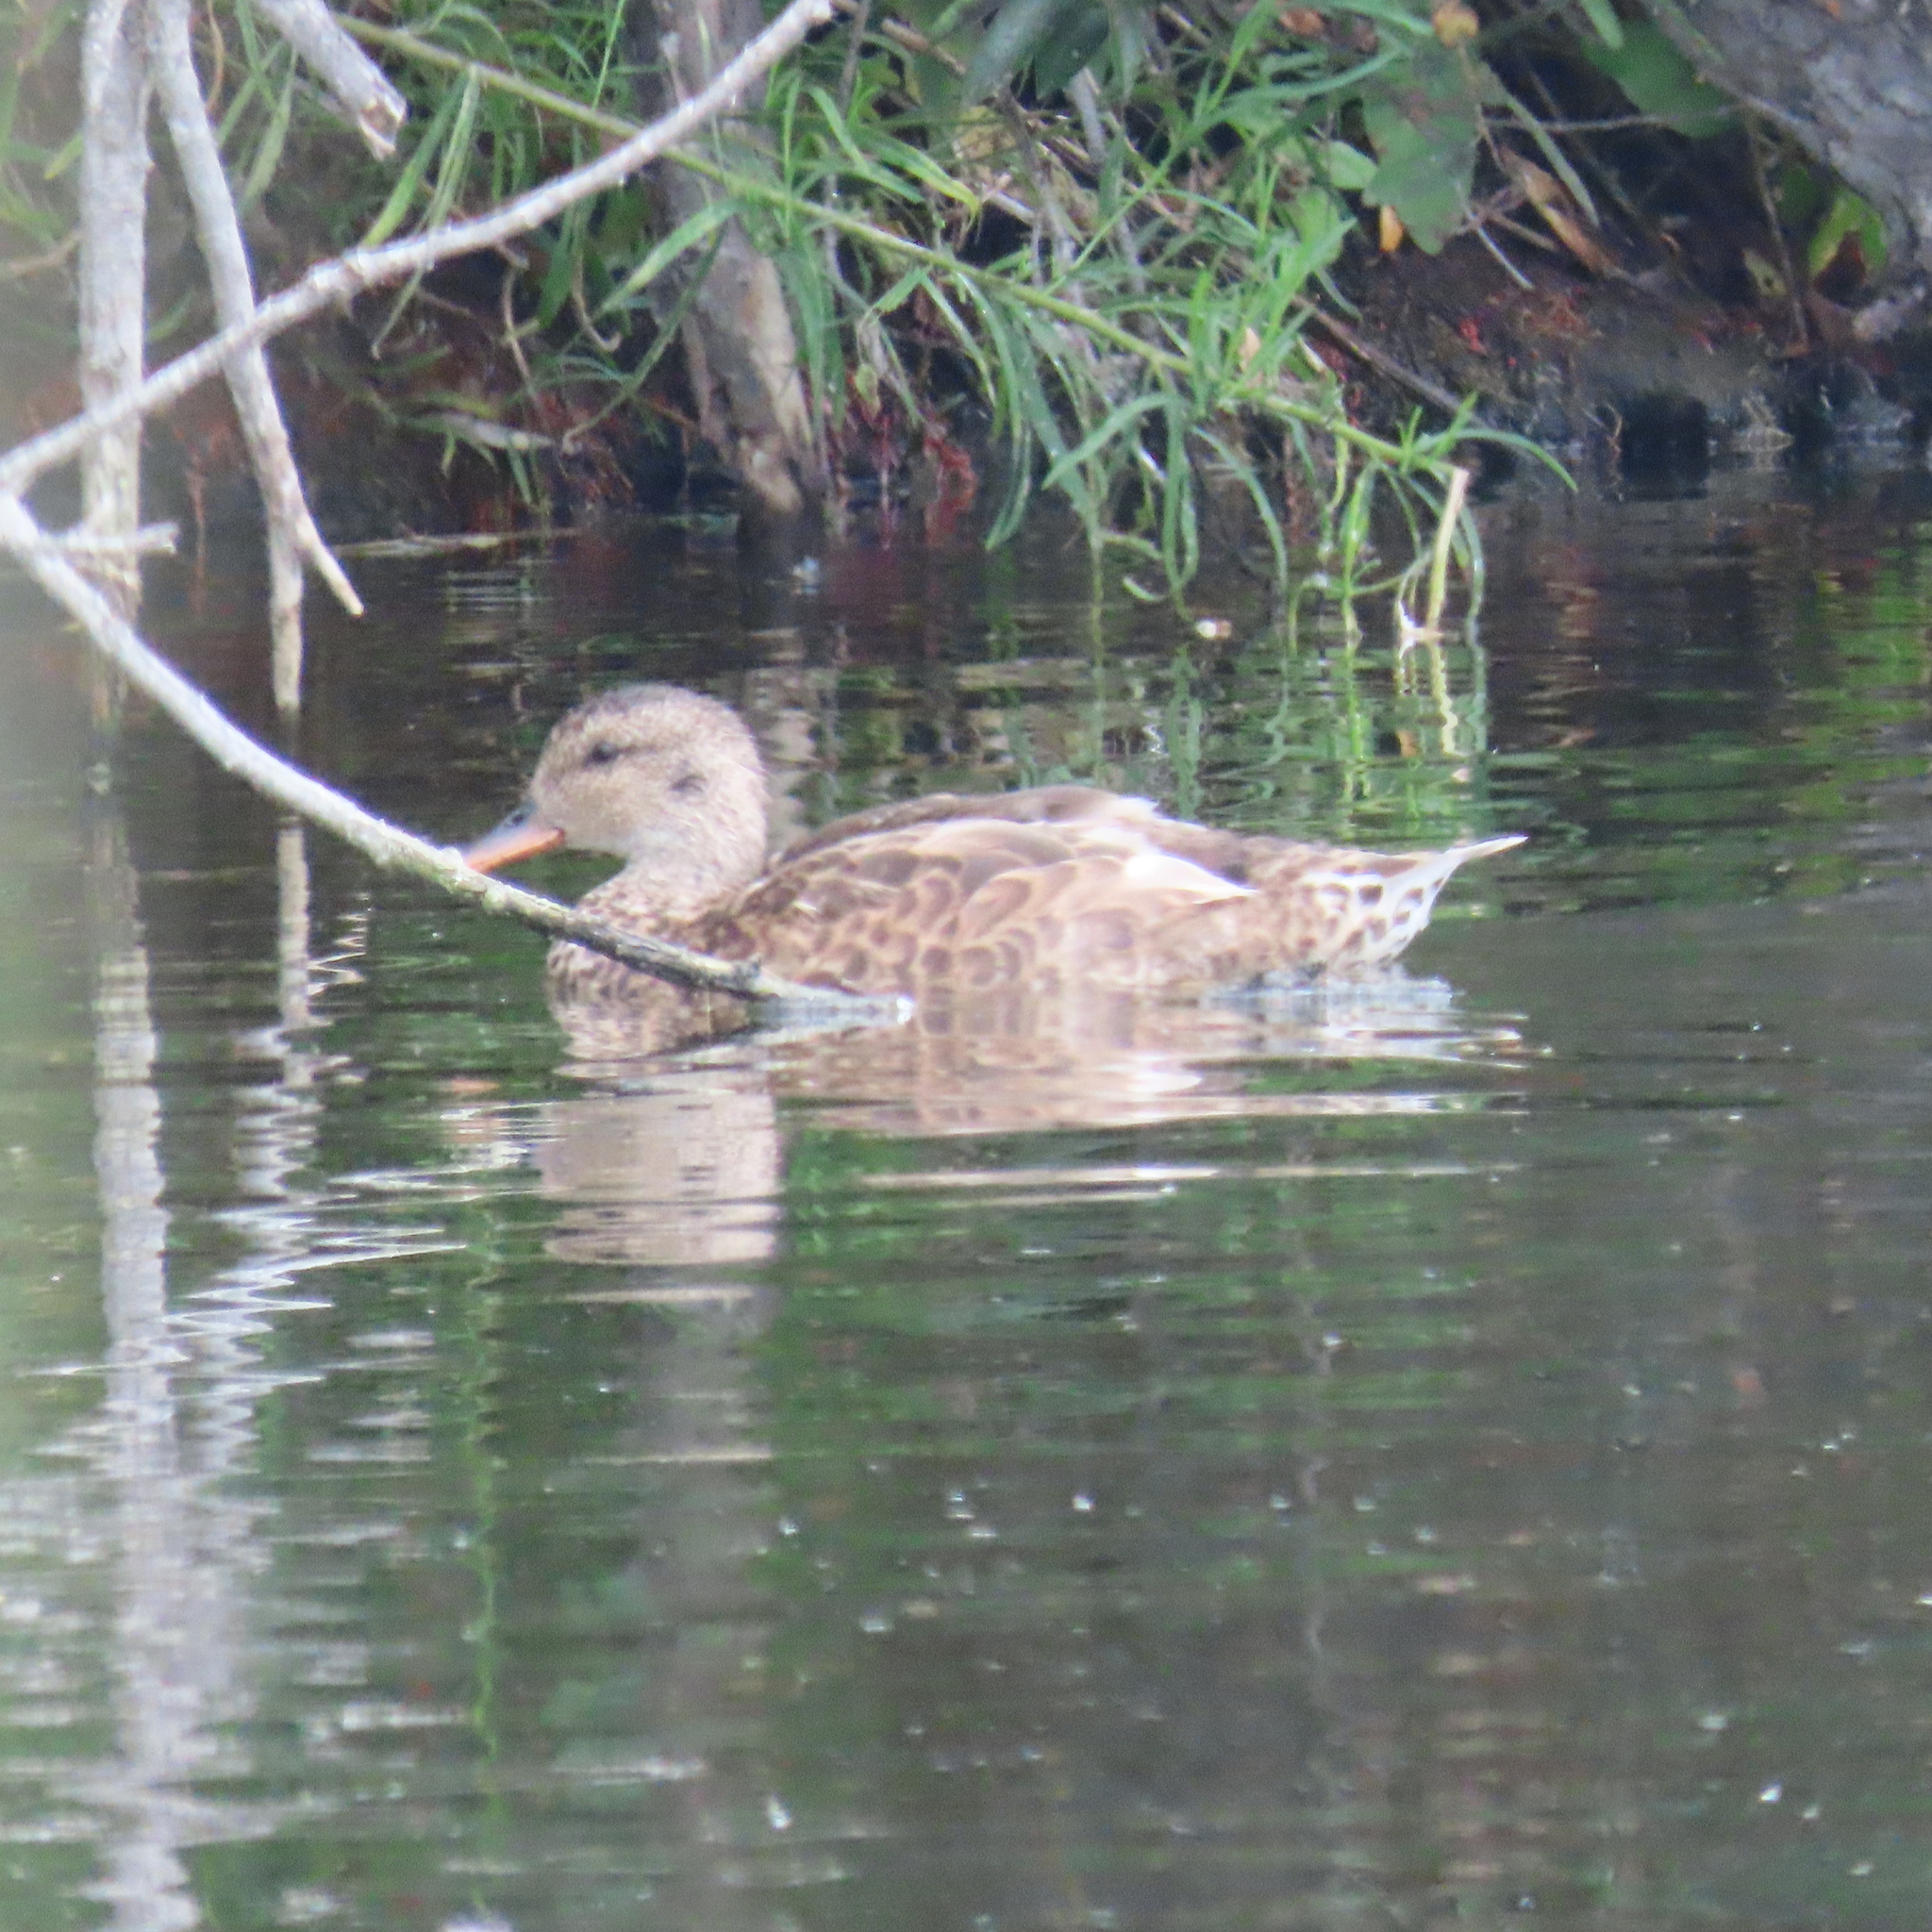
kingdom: Animalia
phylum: Chordata
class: Aves
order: Anseriformes
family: Anatidae
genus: Mareca
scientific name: Mareca strepera
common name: Gadwall
